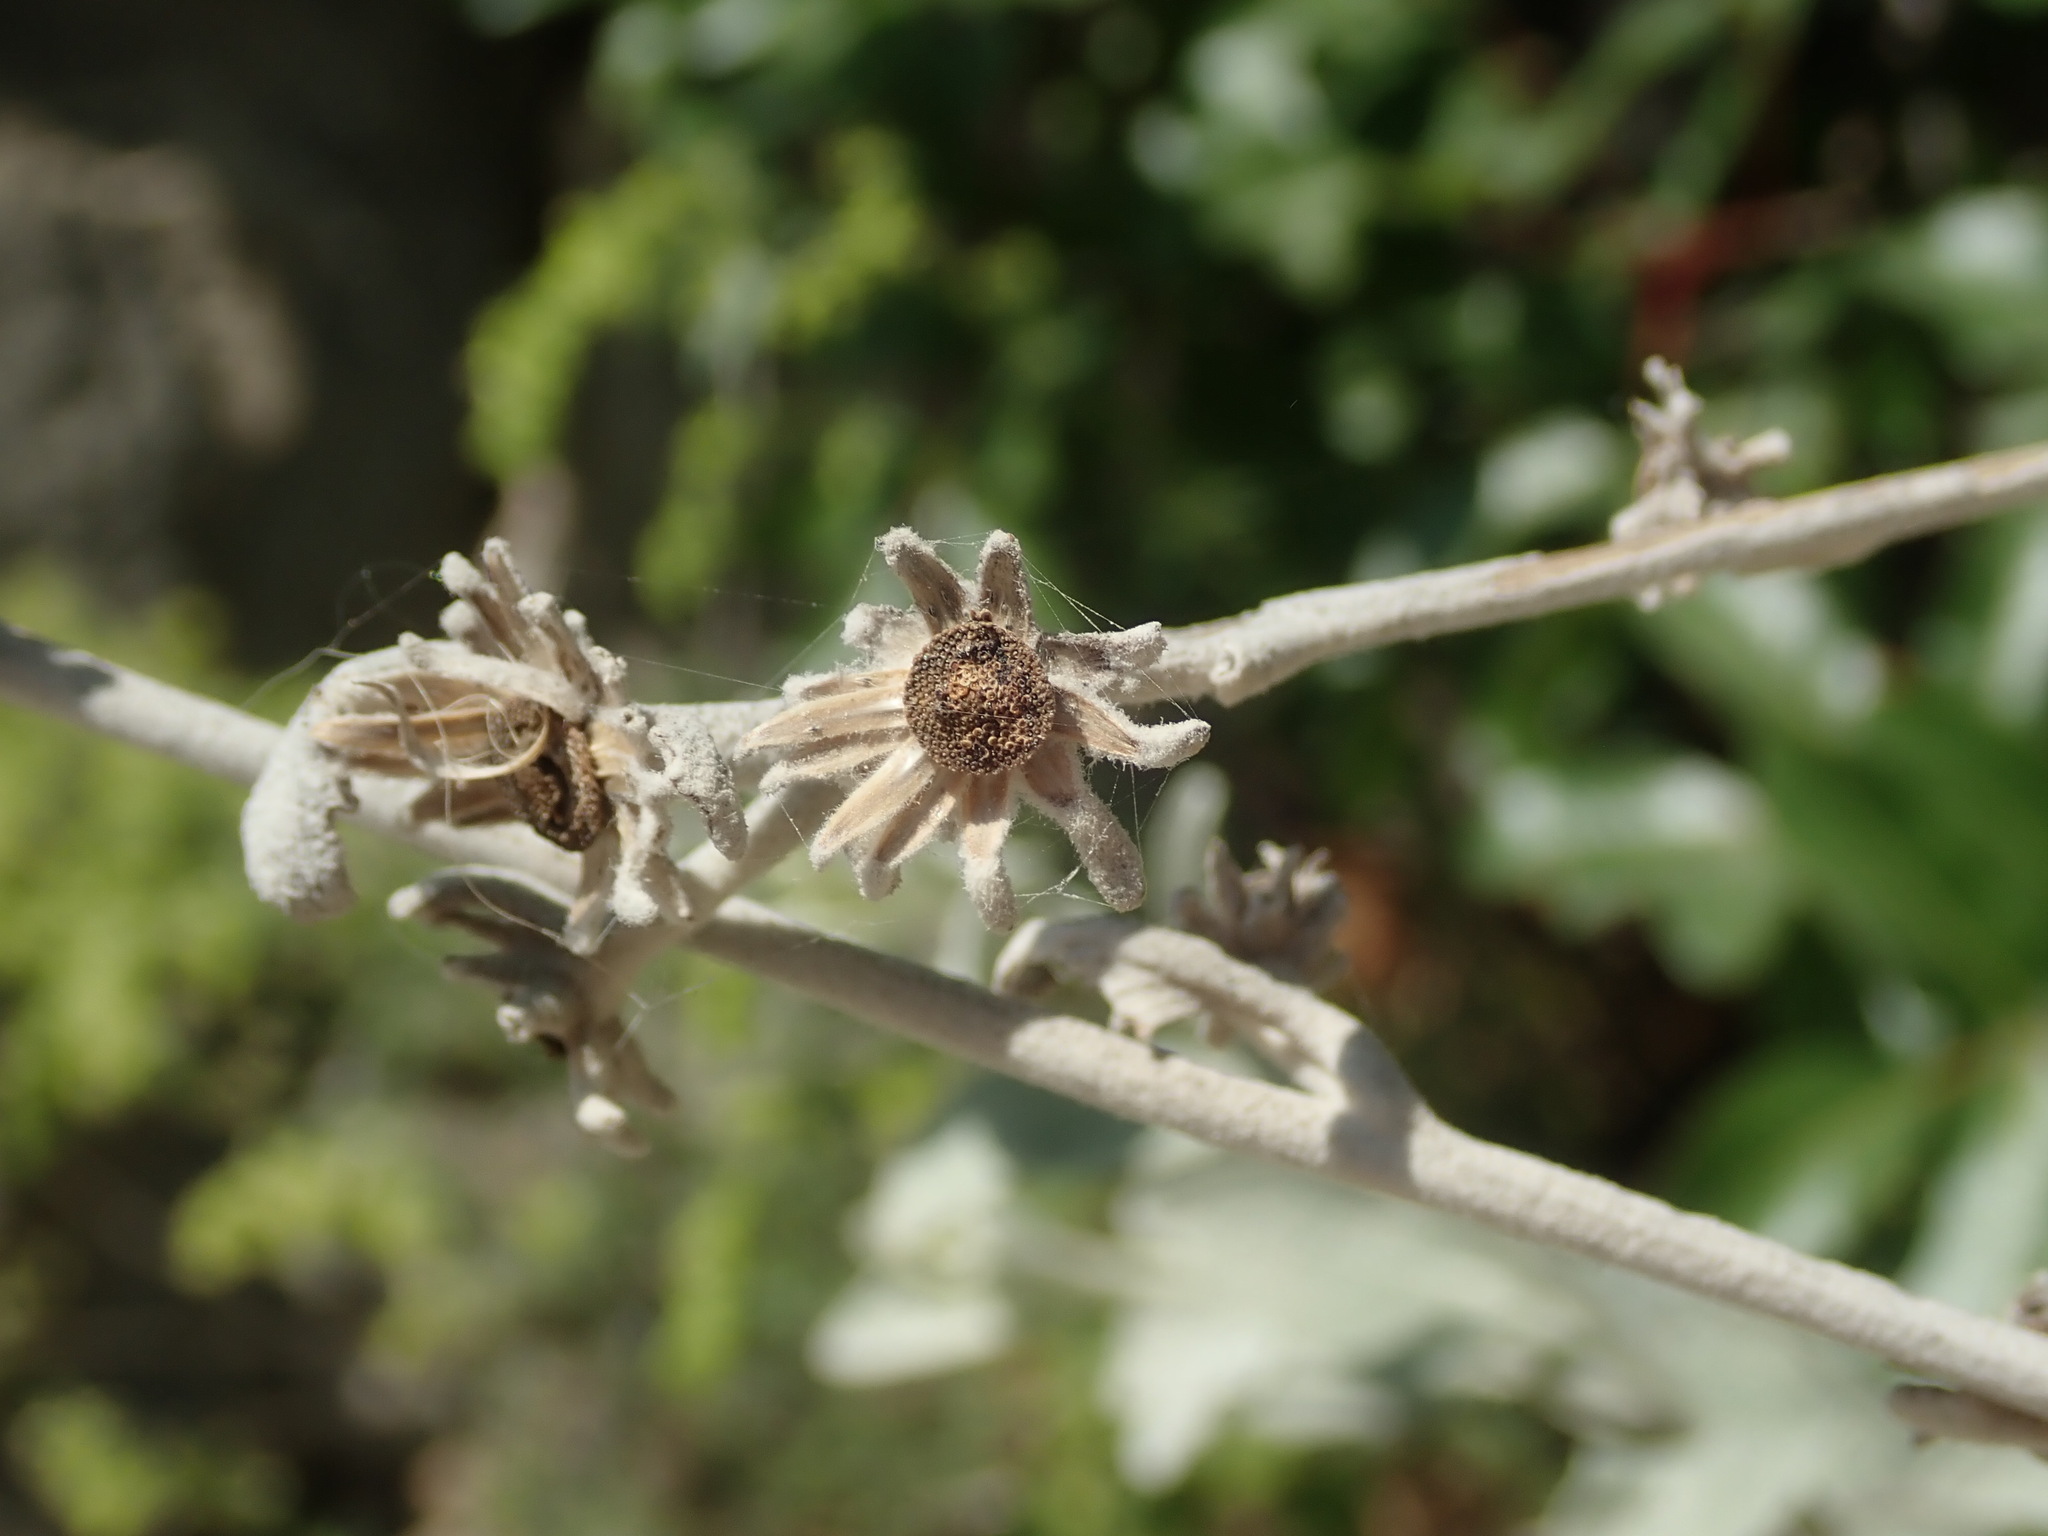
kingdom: Plantae
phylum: Tracheophyta
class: Magnoliopsida
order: Asterales
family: Asteraceae
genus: Pentanema
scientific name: Pentanema verbascifolium
